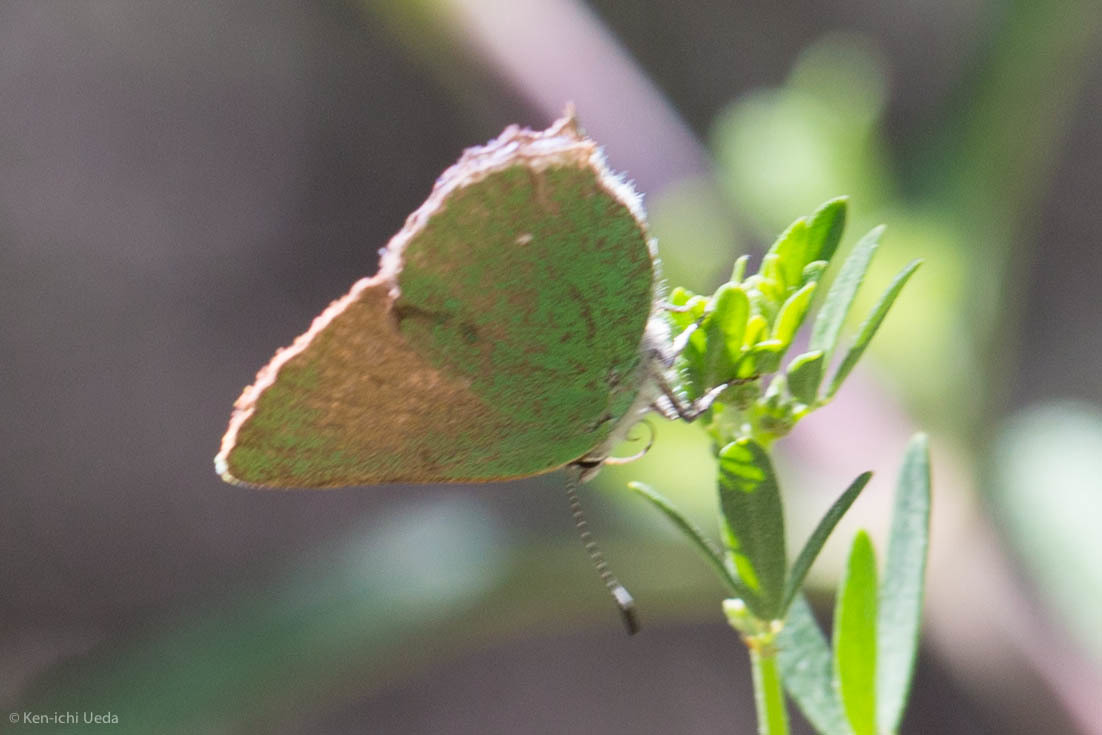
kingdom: Animalia
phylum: Arthropoda
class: Insecta
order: Lepidoptera
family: Lycaenidae
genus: Callophrys
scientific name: Callophrys dumetorum
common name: Bramble hairstreak
